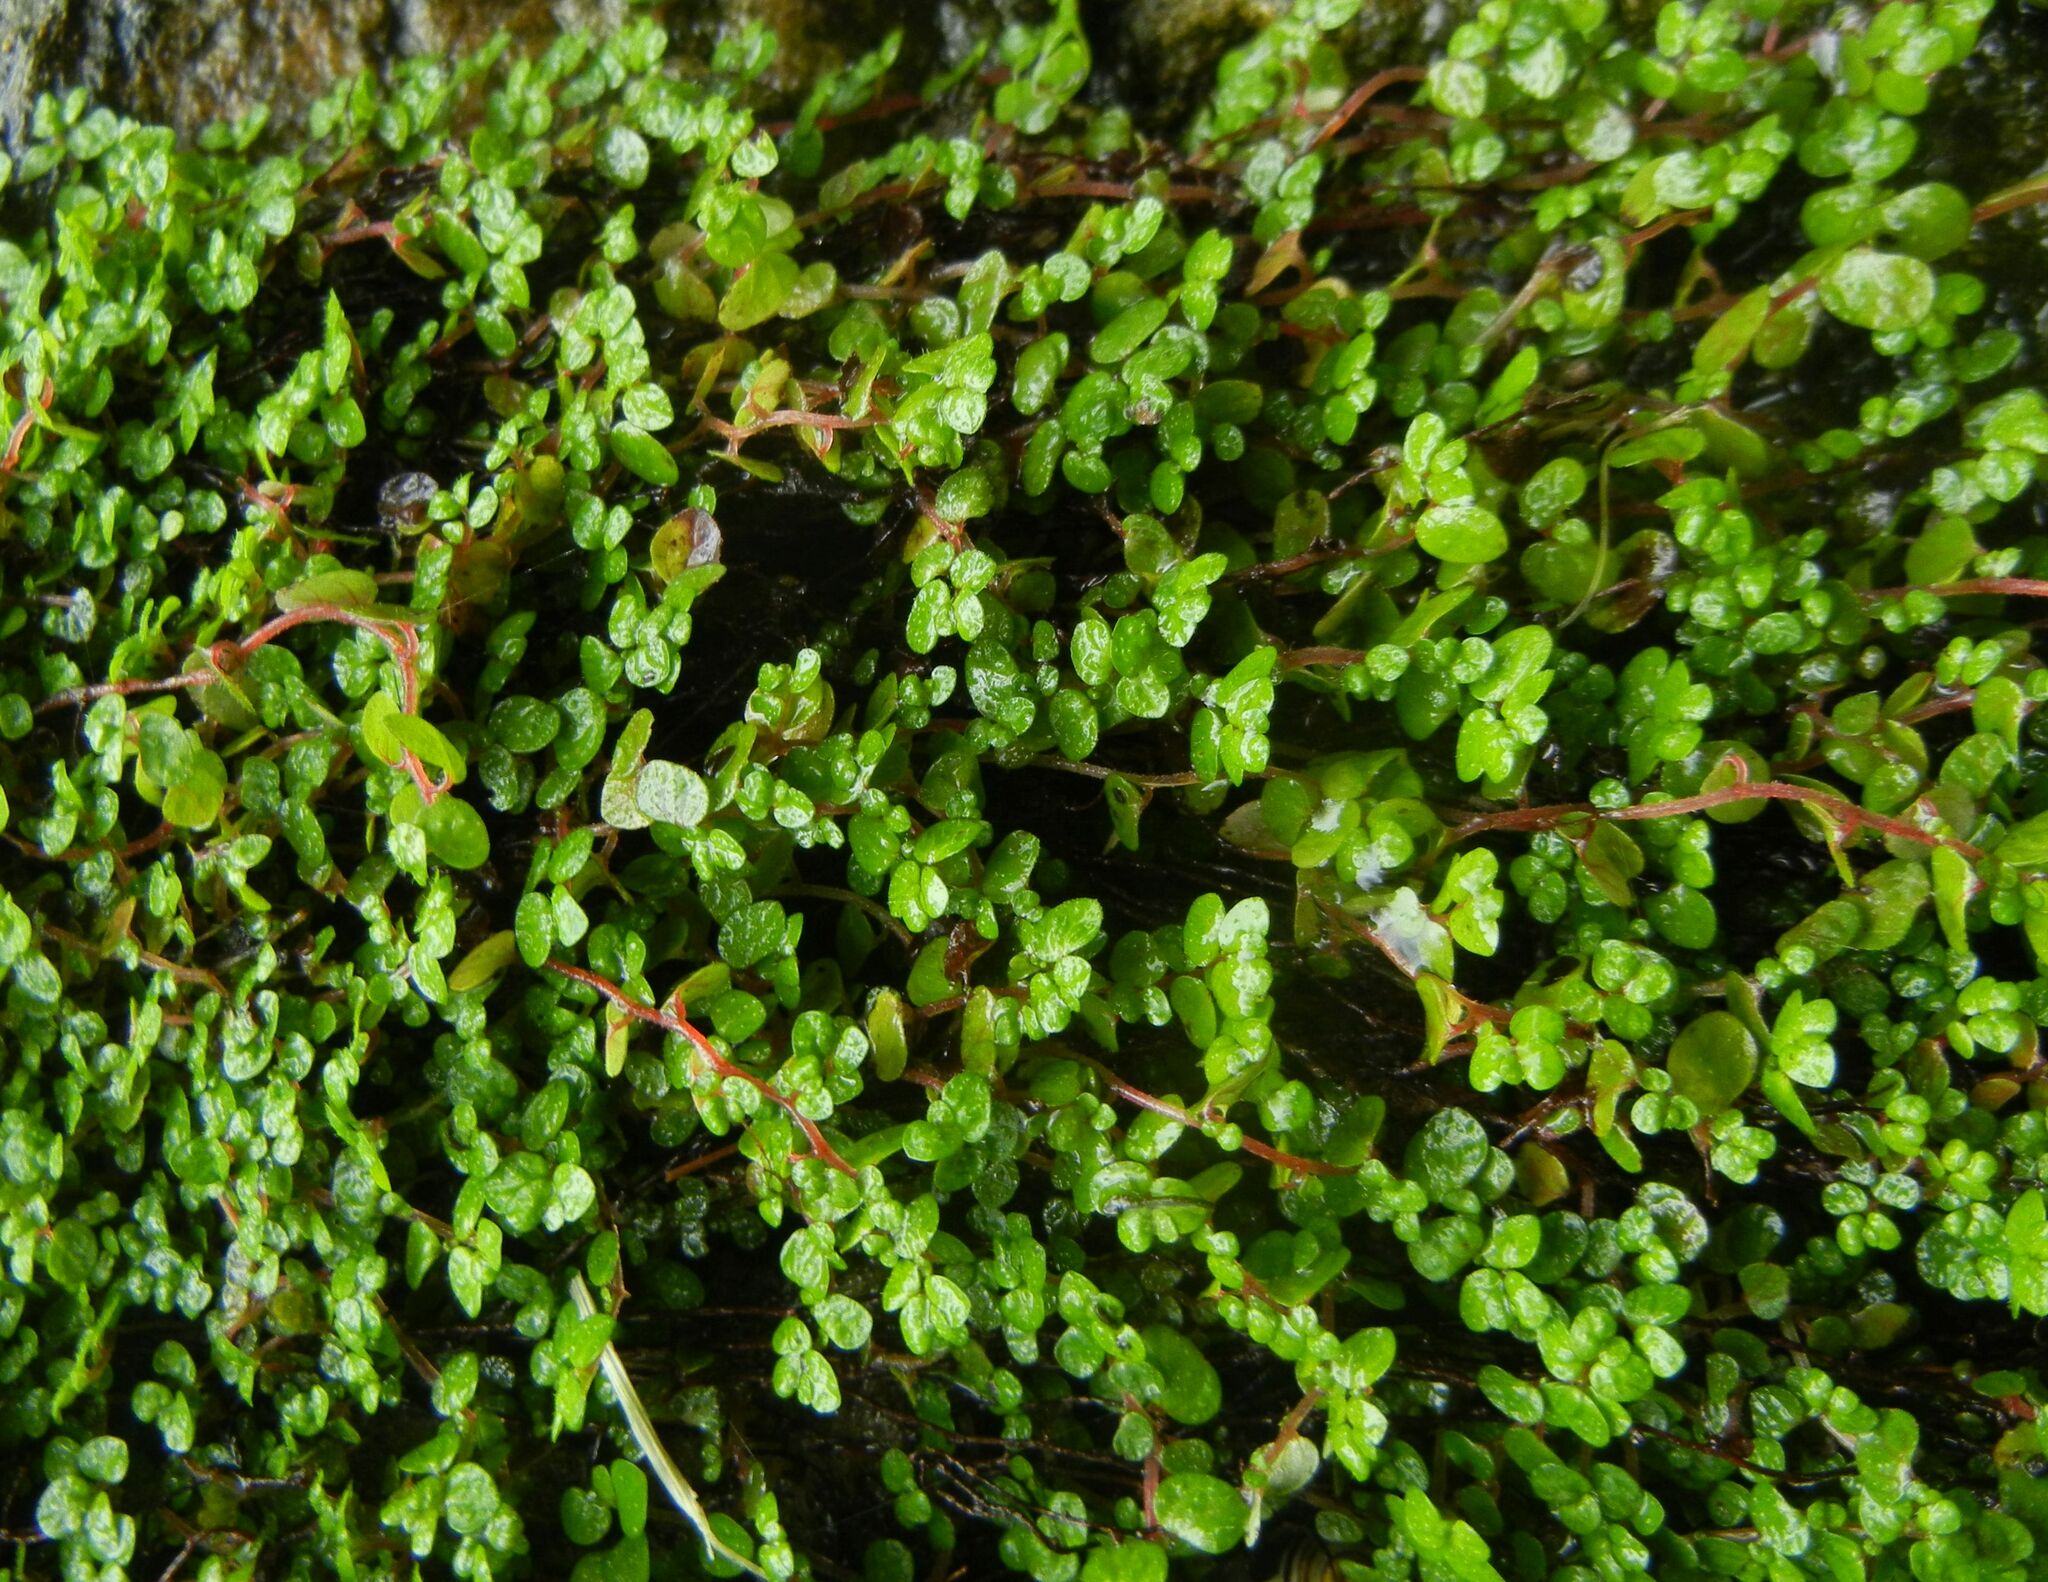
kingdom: Plantae
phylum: Tracheophyta
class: Magnoliopsida
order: Rosales
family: Urticaceae
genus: Soleirolia
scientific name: Soleirolia soleirolii
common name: Mind-your-own-business
